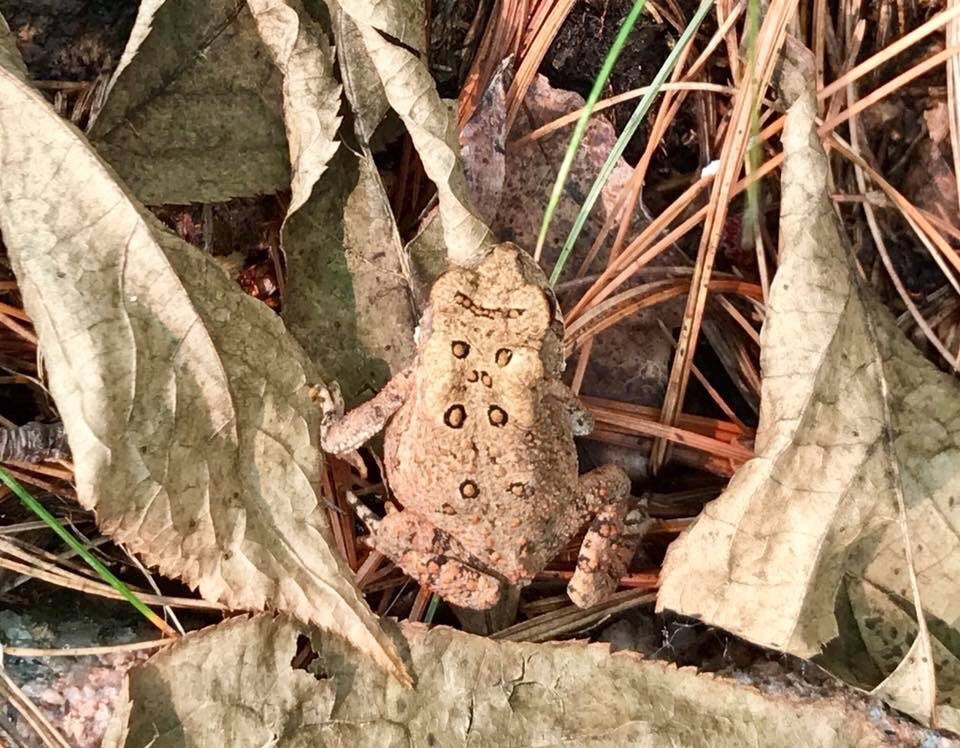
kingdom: Animalia
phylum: Chordata
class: Amphibia
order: Anura
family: Bufonidae
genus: Anaxyrus
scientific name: Anaxyrus americanus
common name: American toad
